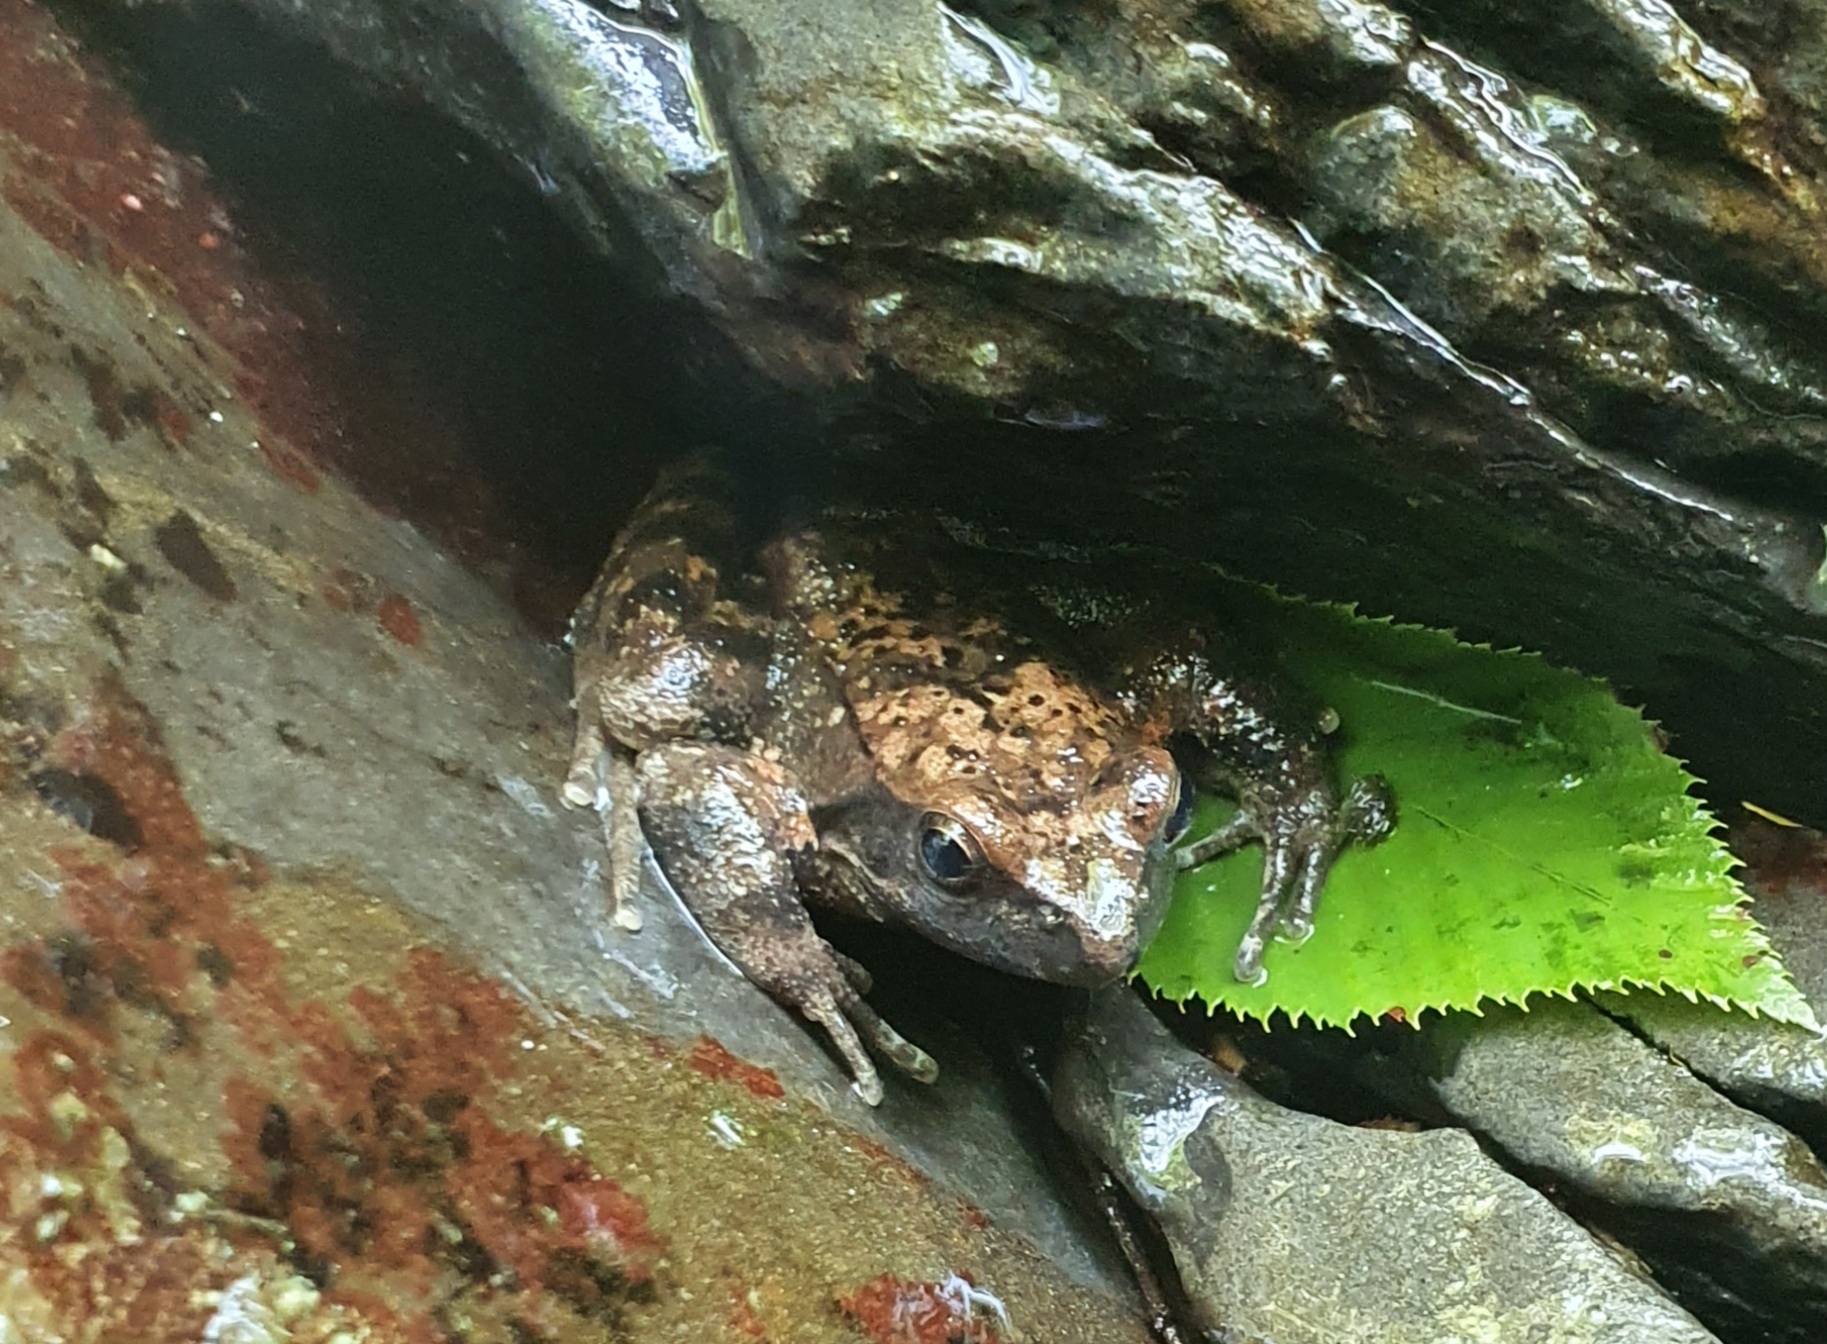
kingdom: Animalia
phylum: Chordata
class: Amphibia
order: Anura
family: Ranidae
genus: Rana
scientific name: Rana italica
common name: Italian stream frog
